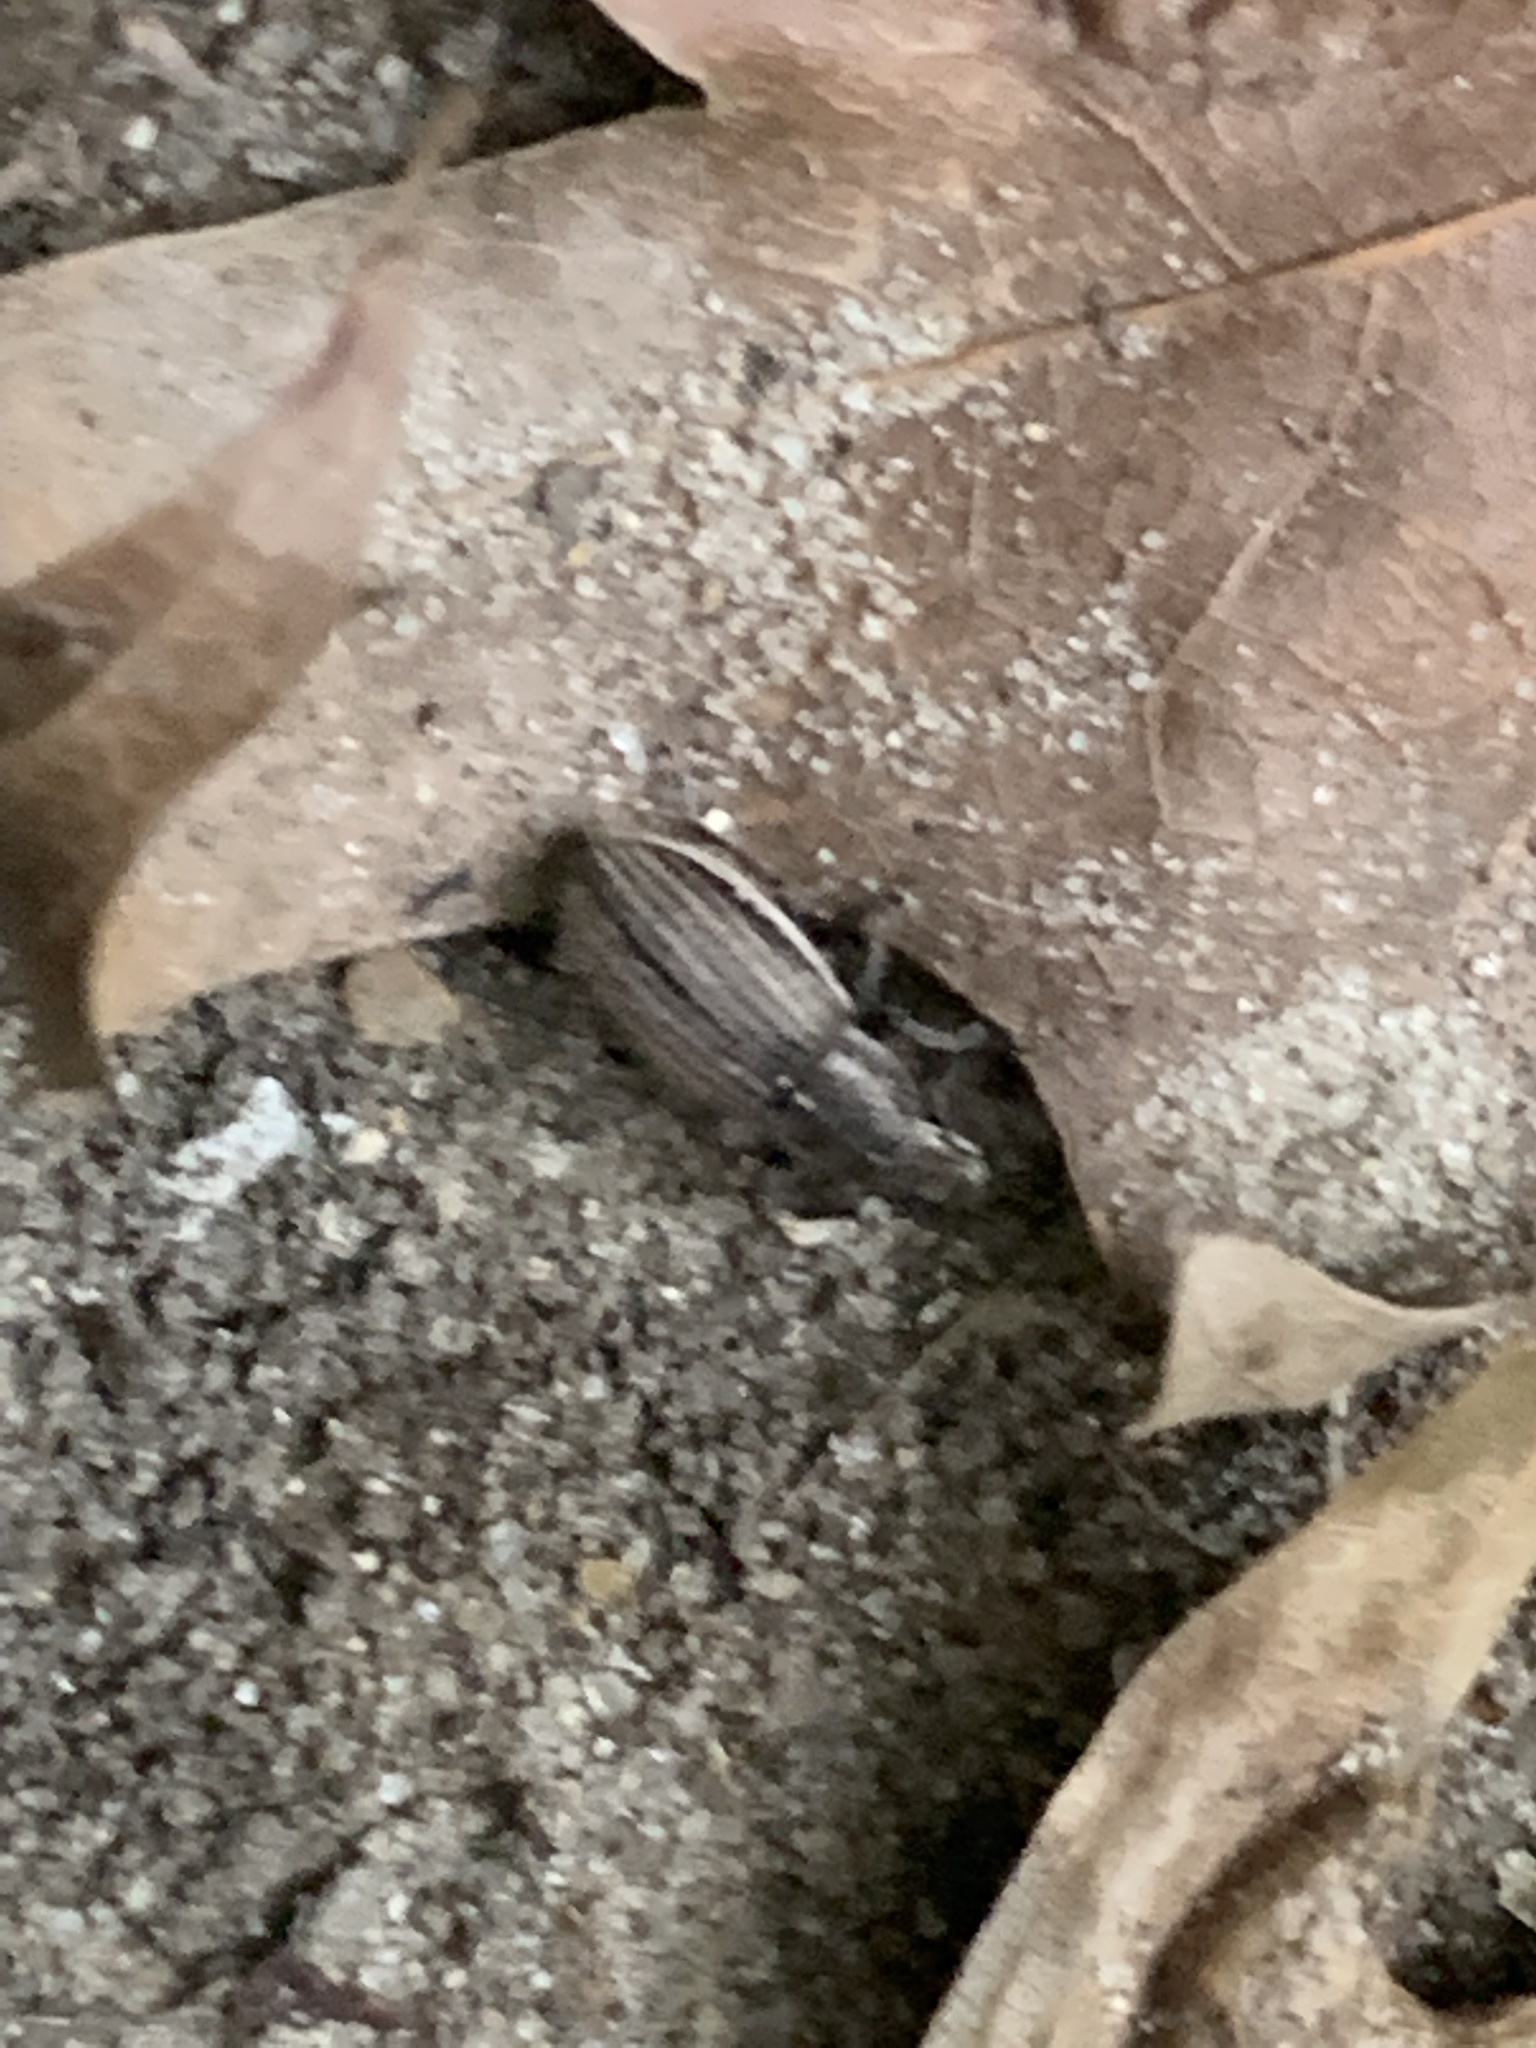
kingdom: Animalia
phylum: Arthropoda
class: Insecta
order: Coleoptera
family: Curculionidae
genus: Naupactus
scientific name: Naupactus leucoloma
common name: Whitefringed beetle
